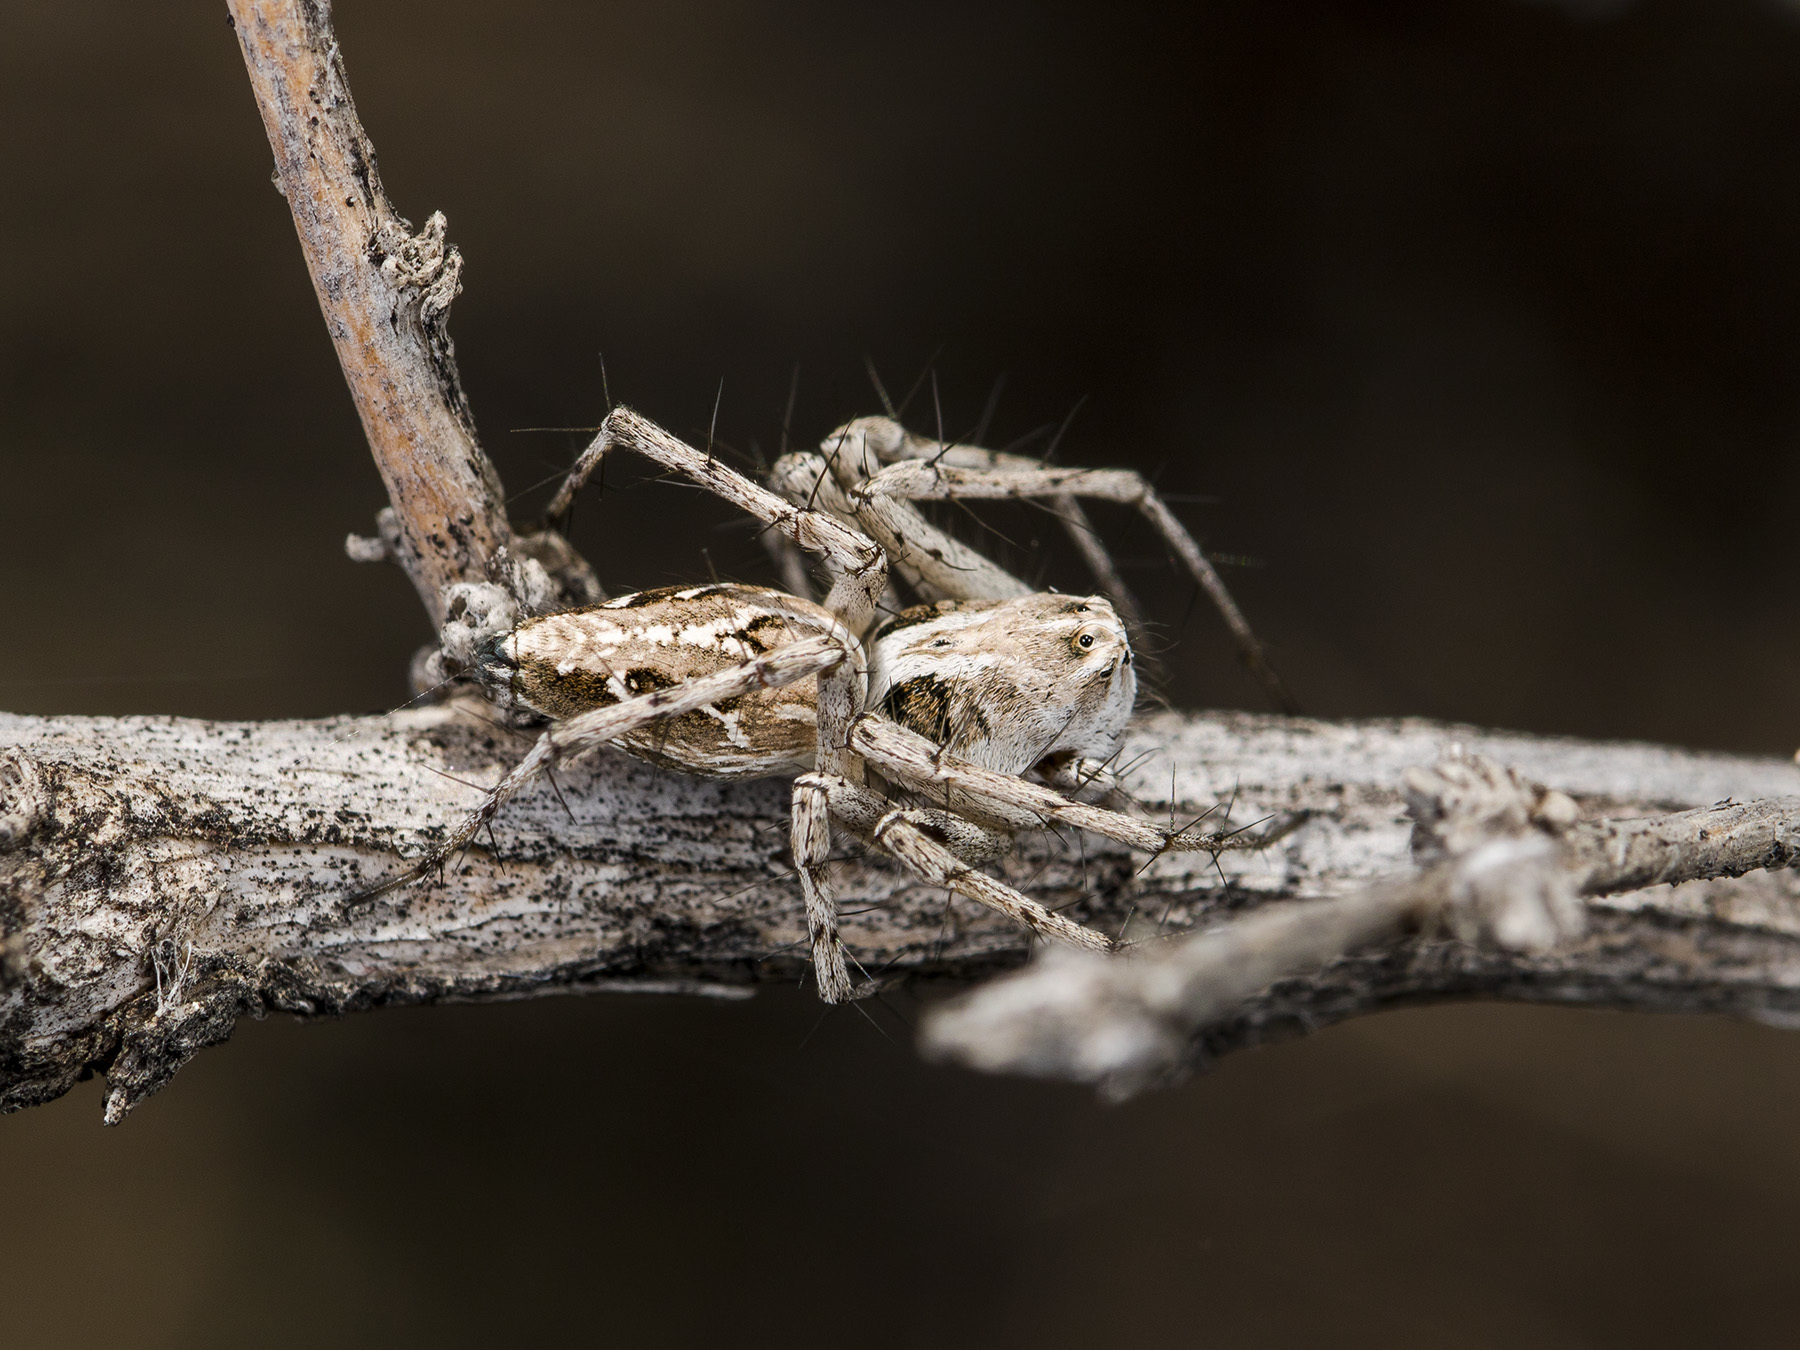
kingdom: Animalia
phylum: Arthropoda
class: Arachnida
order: Araneae
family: Oxyopidae
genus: Oxyopes
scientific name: Oxyopes takobius
